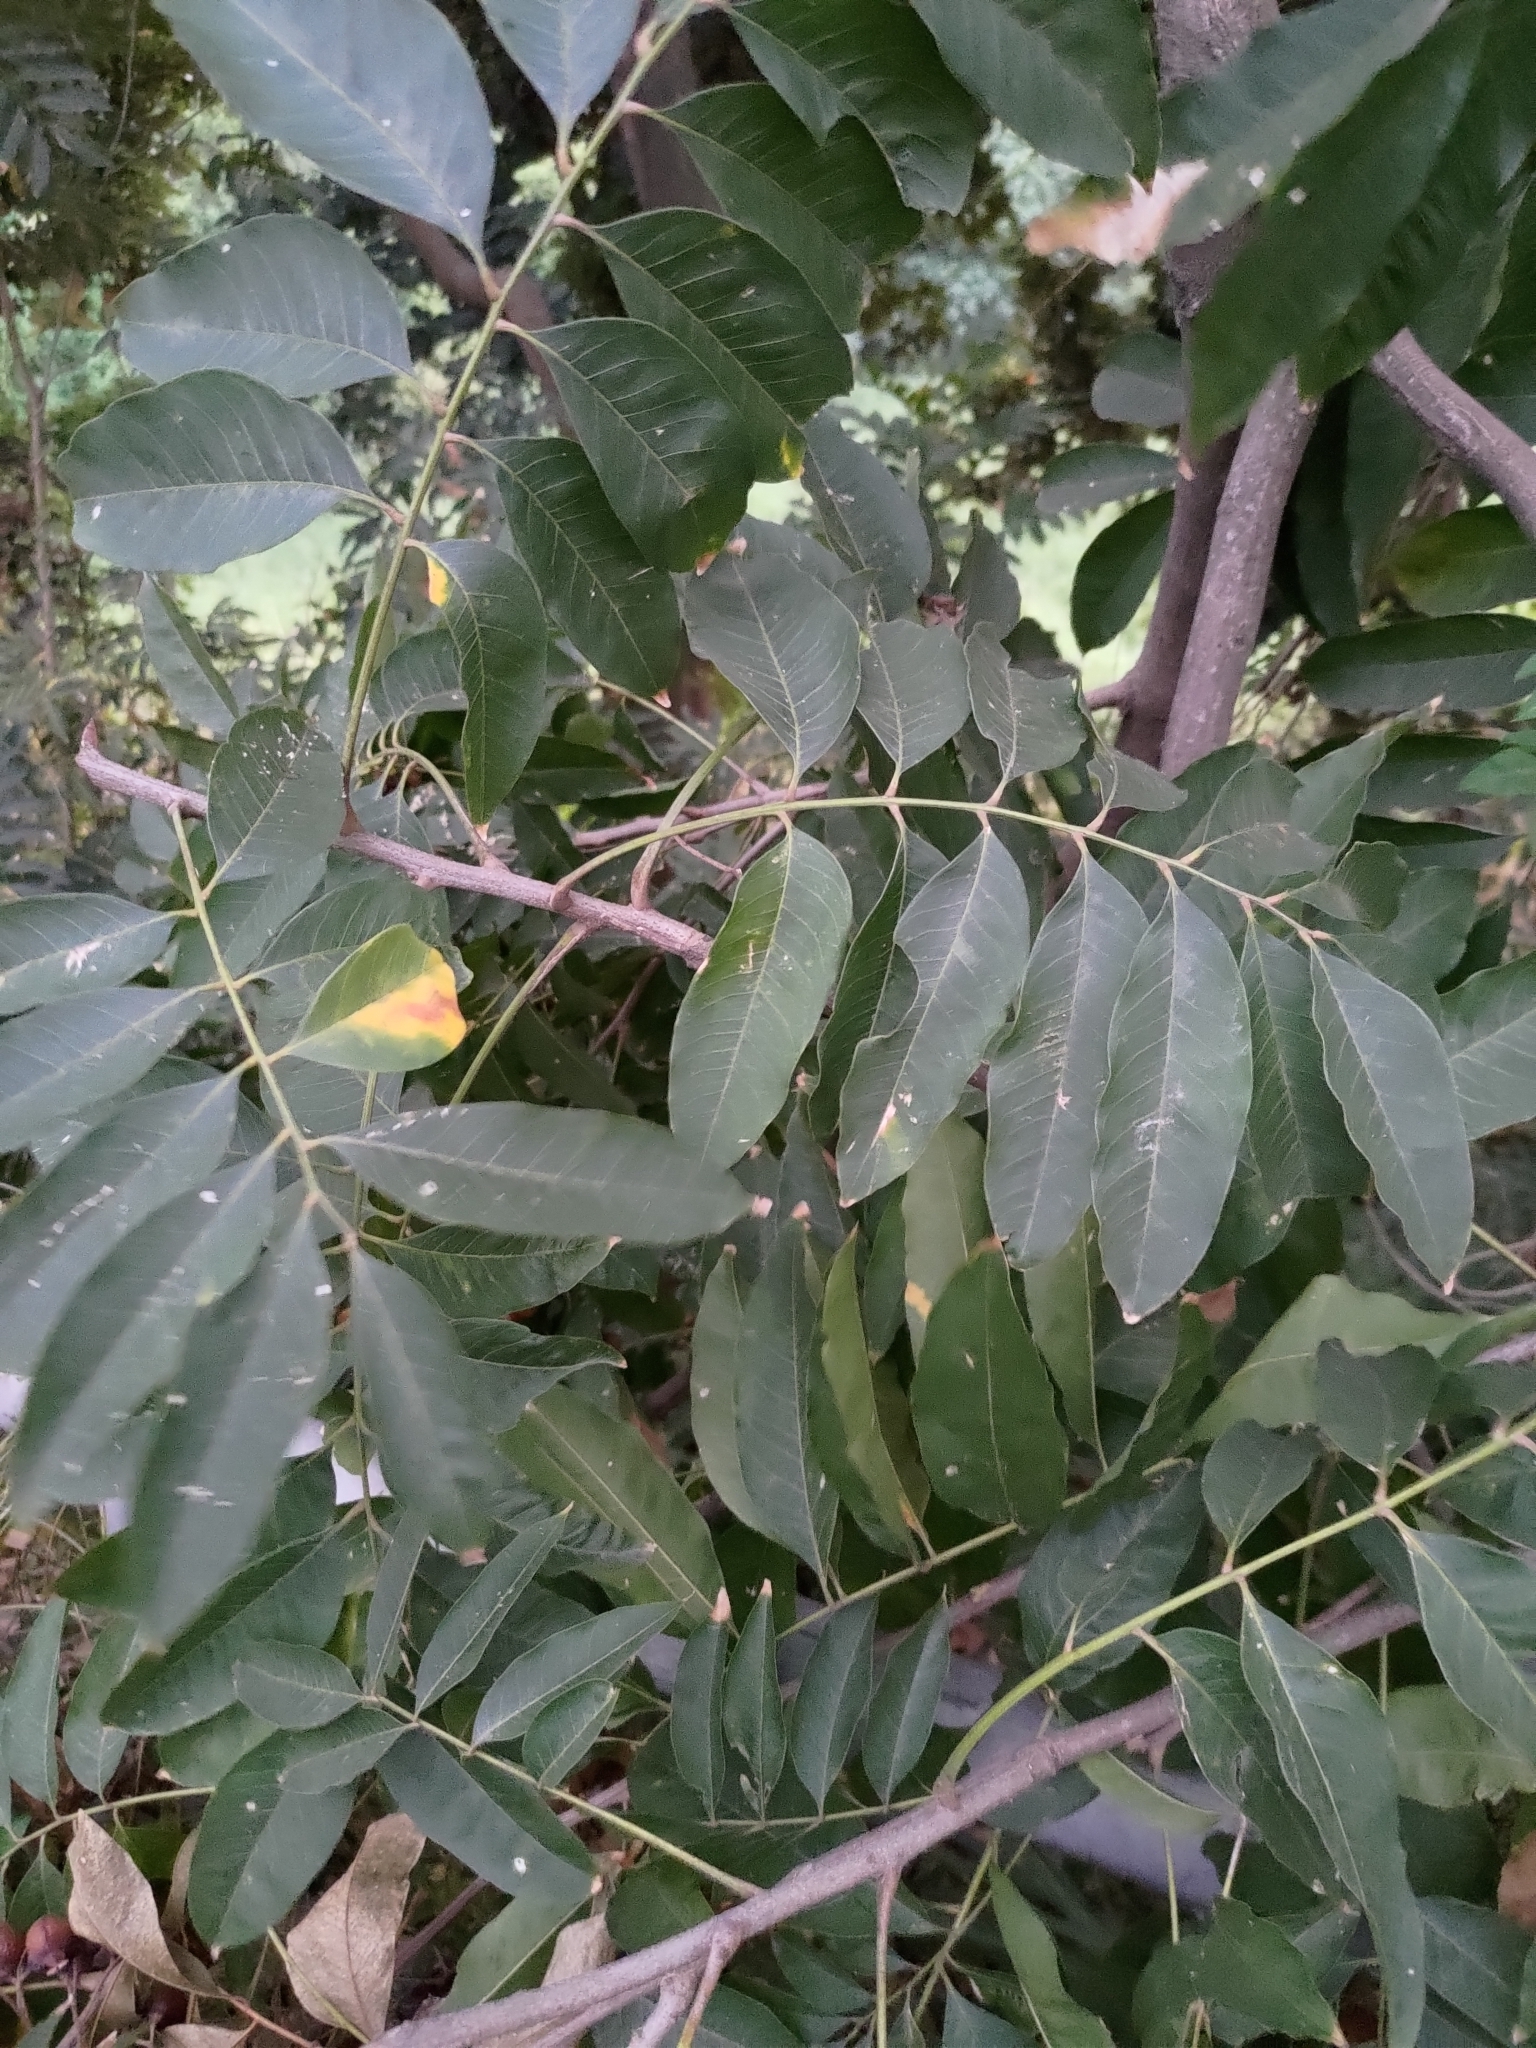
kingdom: Plantae
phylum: Tracheophyta
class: Magnoliopsida
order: Sapindales
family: Sapindaceae
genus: Sapindus
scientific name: Sapindus mukorossi
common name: Chinese soapberry
